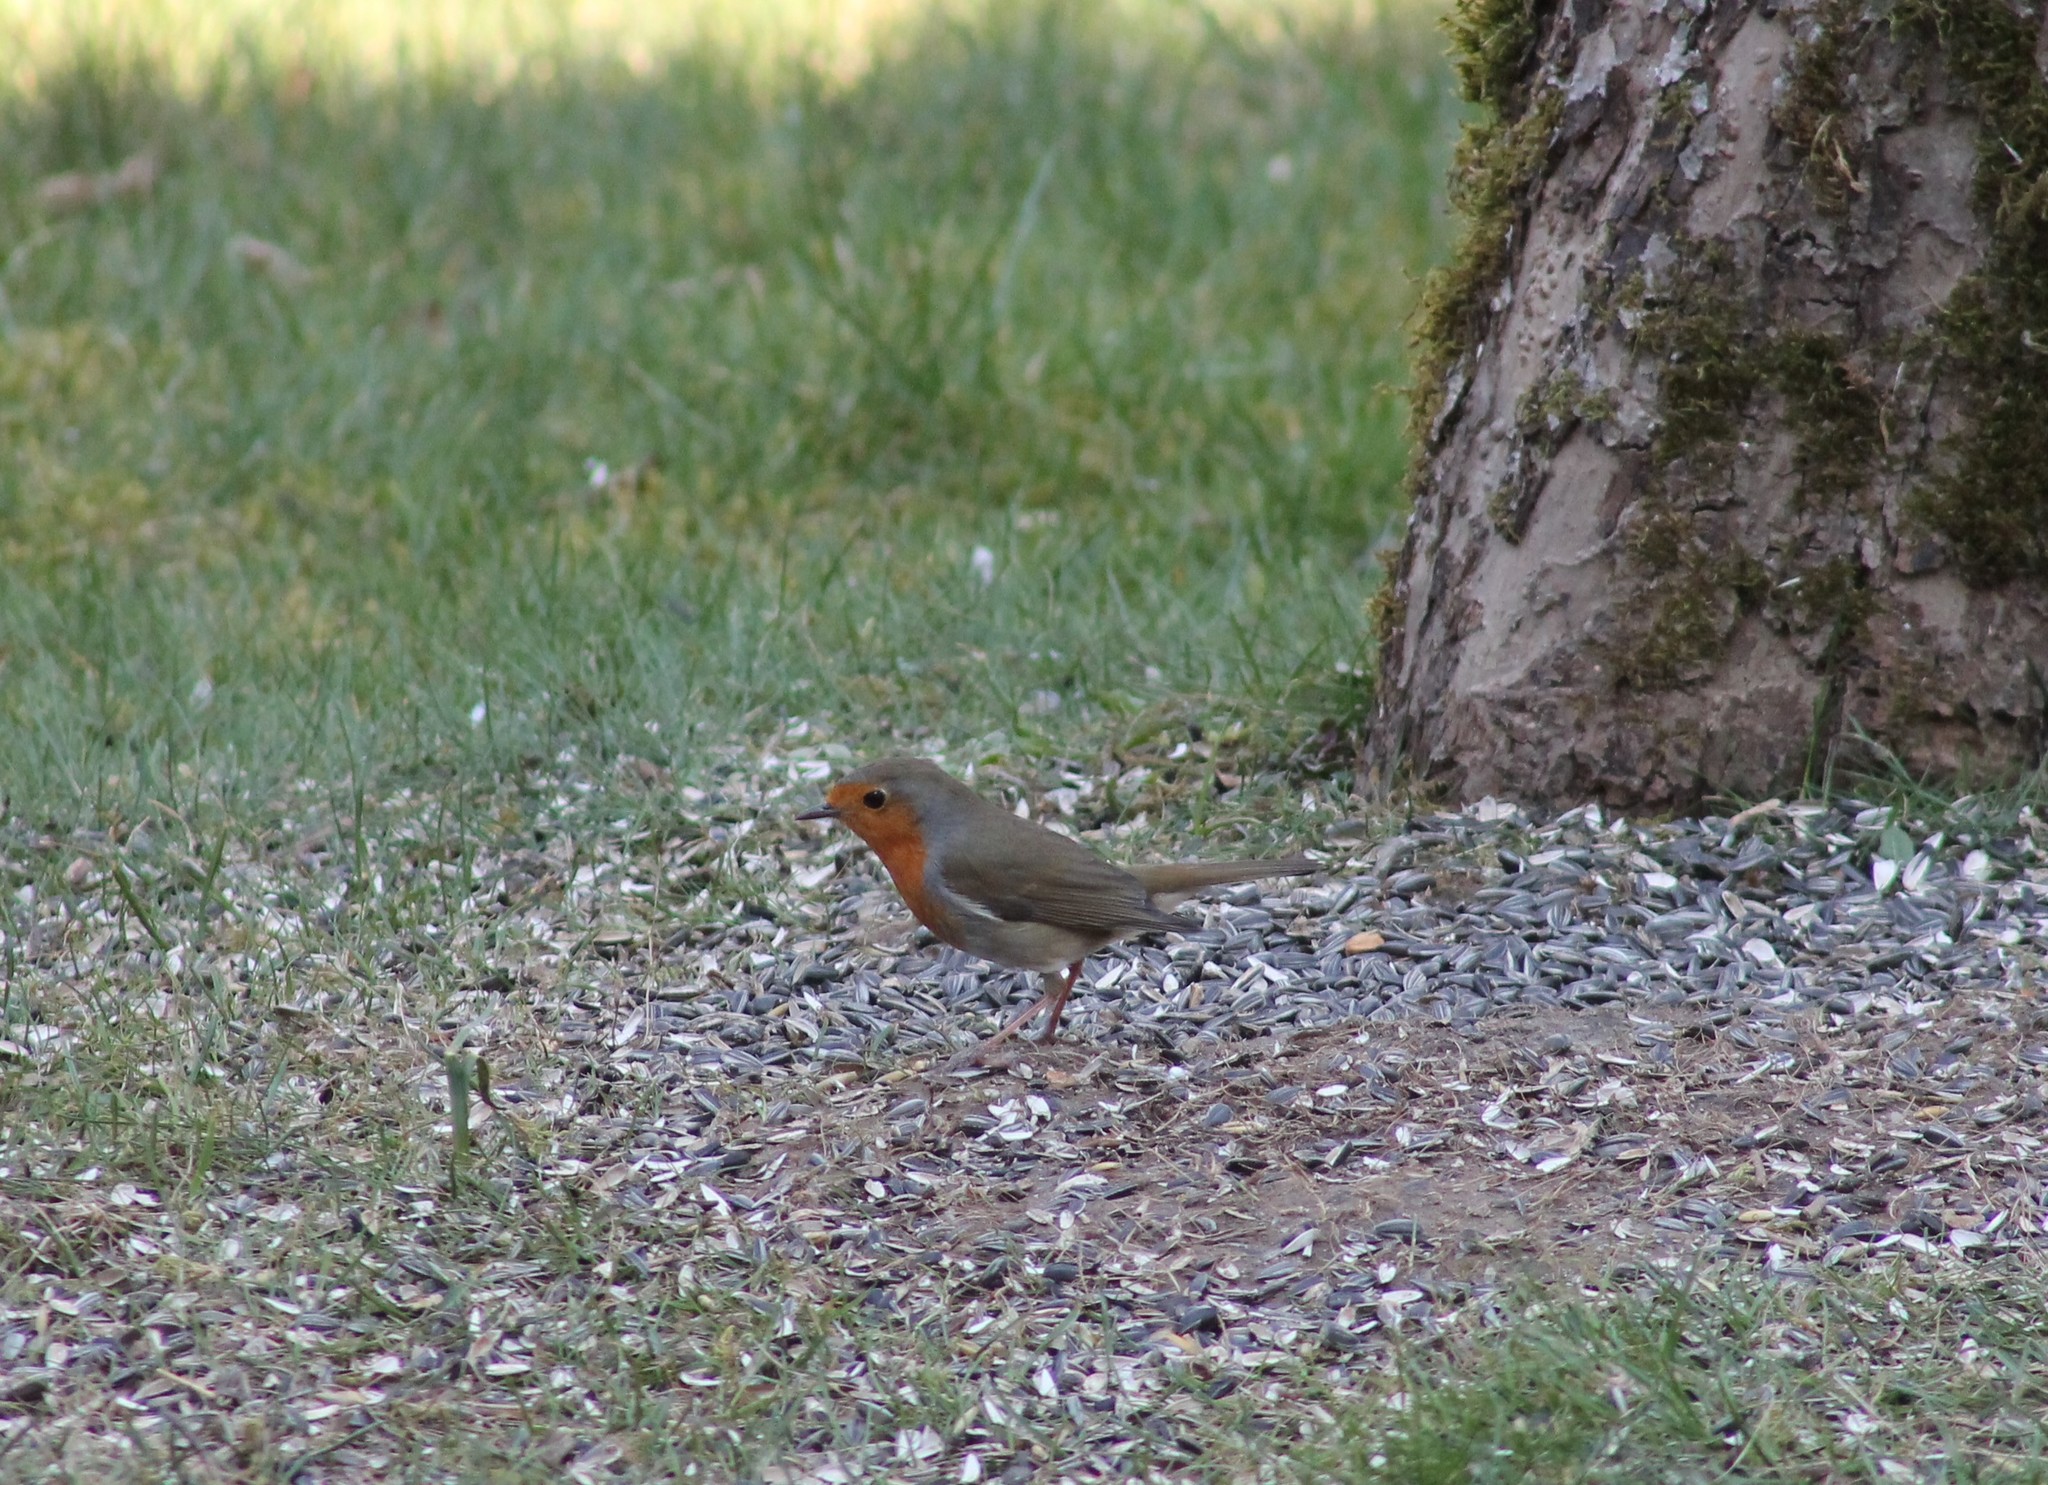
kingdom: Animalia
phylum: Chordata
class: Aves
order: Passeriformes
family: Muscicapidae
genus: Erithacus
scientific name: Erithacus rubecula
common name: European robin
